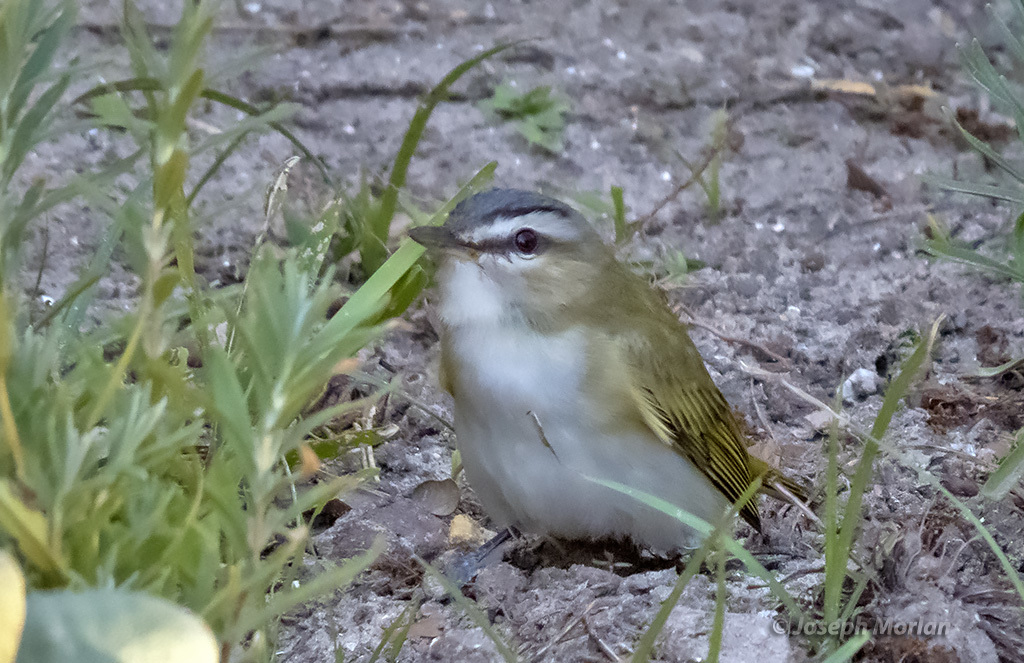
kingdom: Animalia
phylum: Chordata
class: Aves
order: Passeriformes
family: Vireonidae
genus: Vireo
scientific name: Vireo olivaceus
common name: Red-eyed vireo
